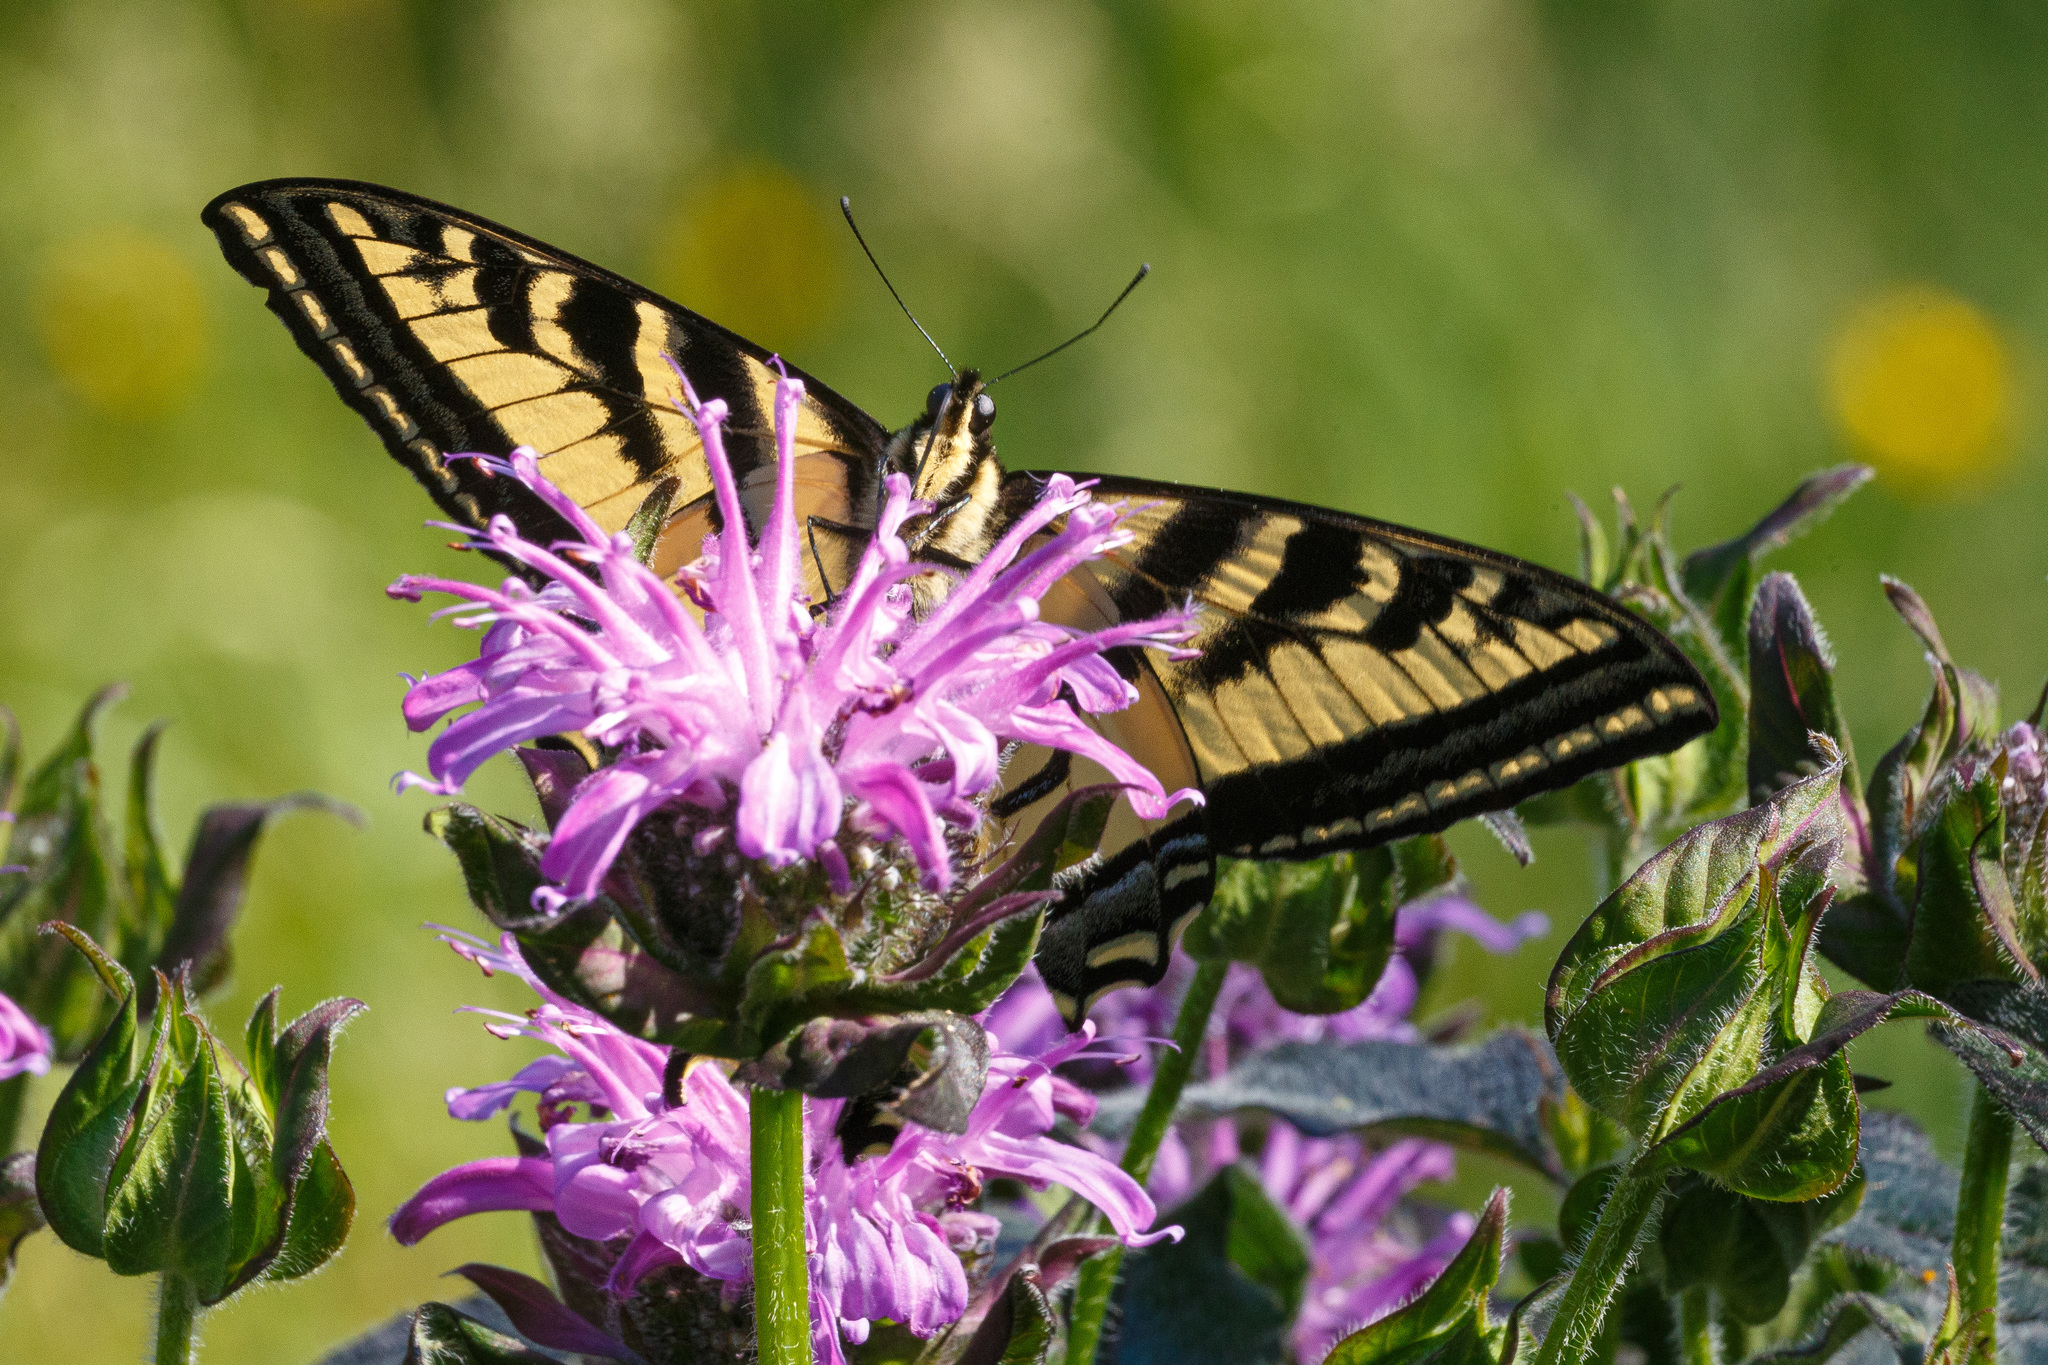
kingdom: Animalia
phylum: Arthropoda
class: Insecta
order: Lepidoptera
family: Papilionidae
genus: Papilio
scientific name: Papilio rutulus
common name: Western tiger swallowtail
